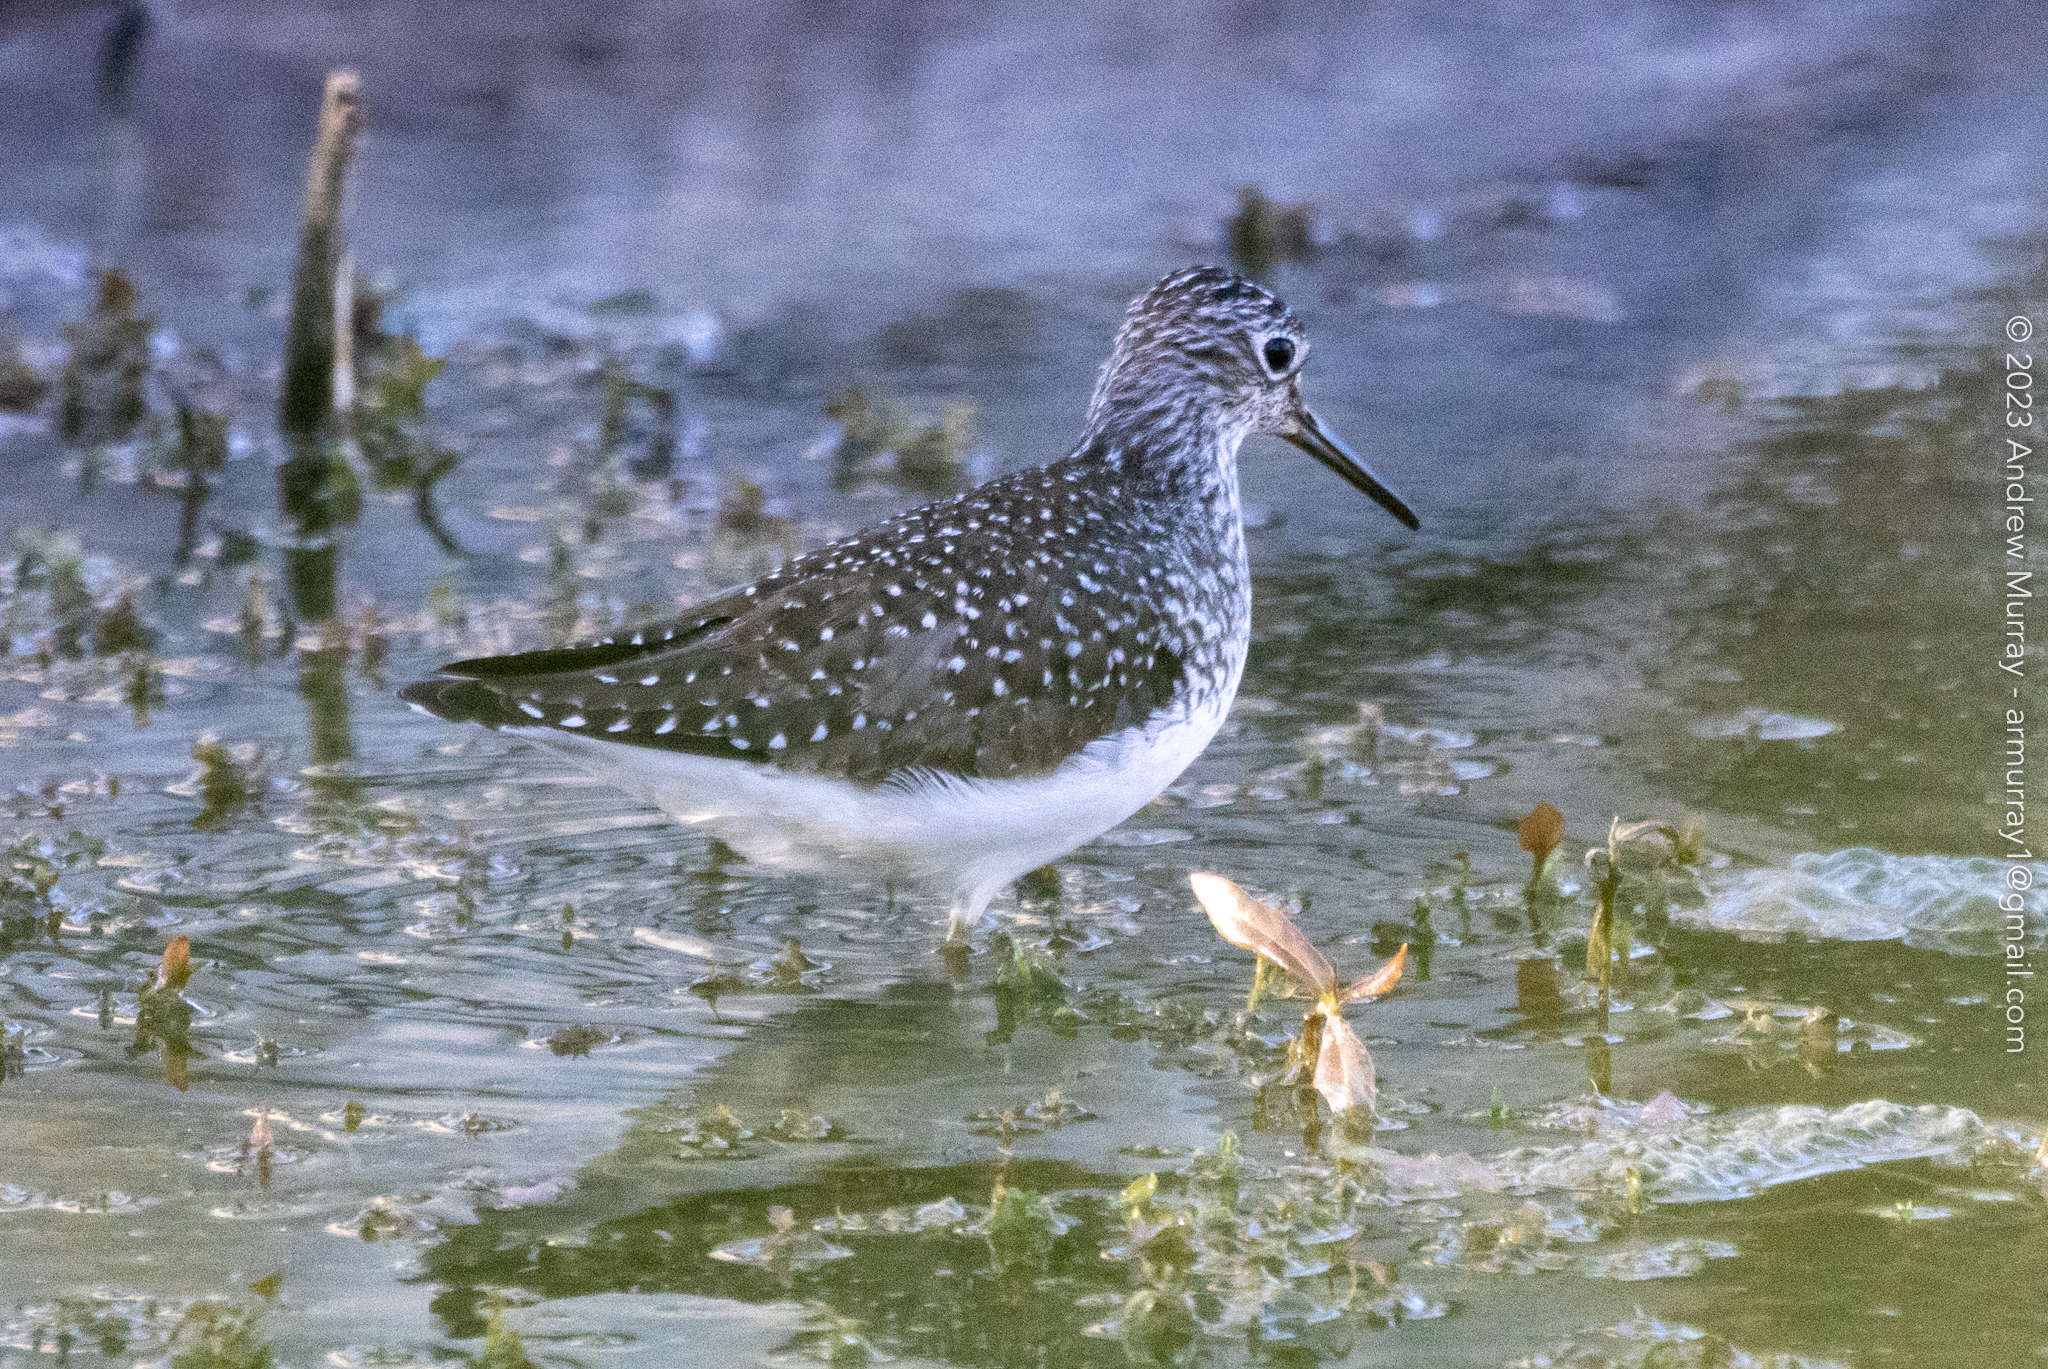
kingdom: Animalia
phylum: Chordata
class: Aves
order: Charadriiformes
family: Scolopacidae
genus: Tringa
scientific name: Tringa solitaria
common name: Solitary sandpiper
